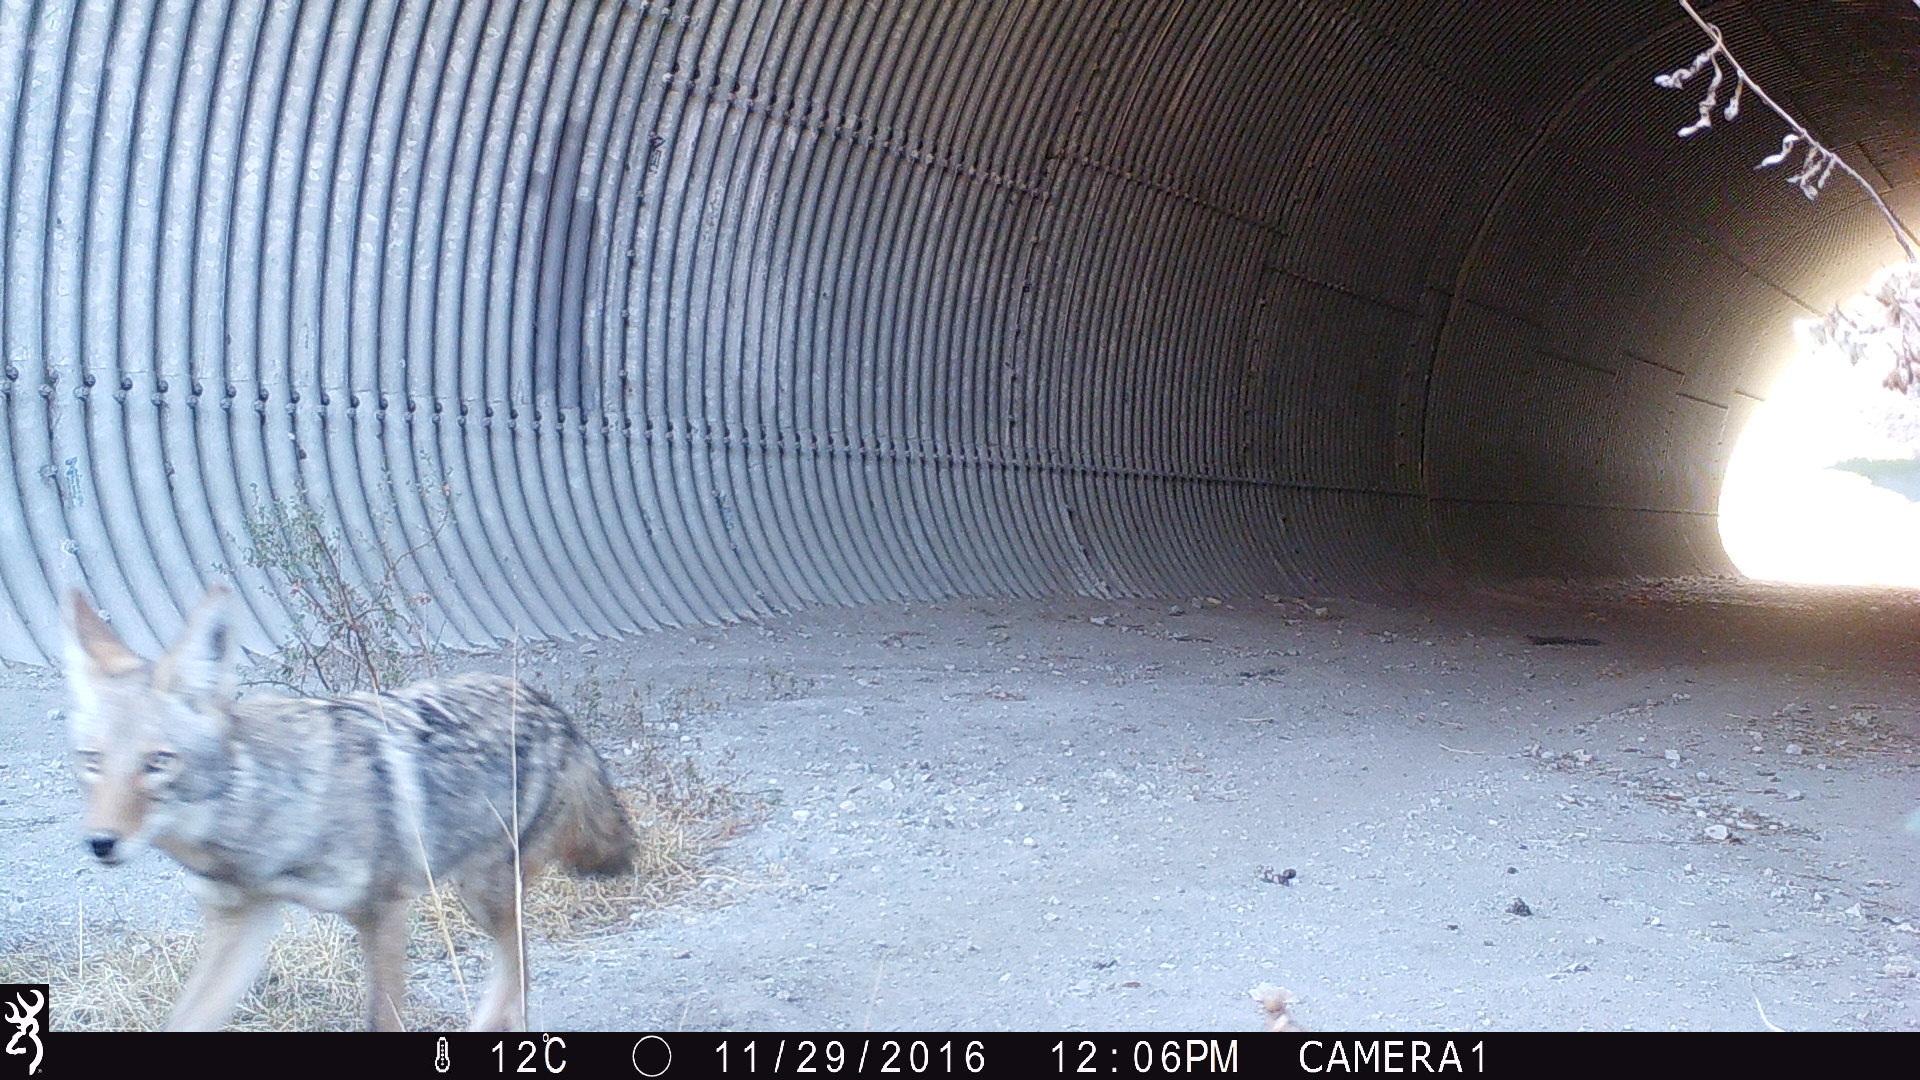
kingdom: Animalia
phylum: Chordata
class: Mammalia
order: Carnivora
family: Canidae
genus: Canis
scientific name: Canis latrans
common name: Coyote
